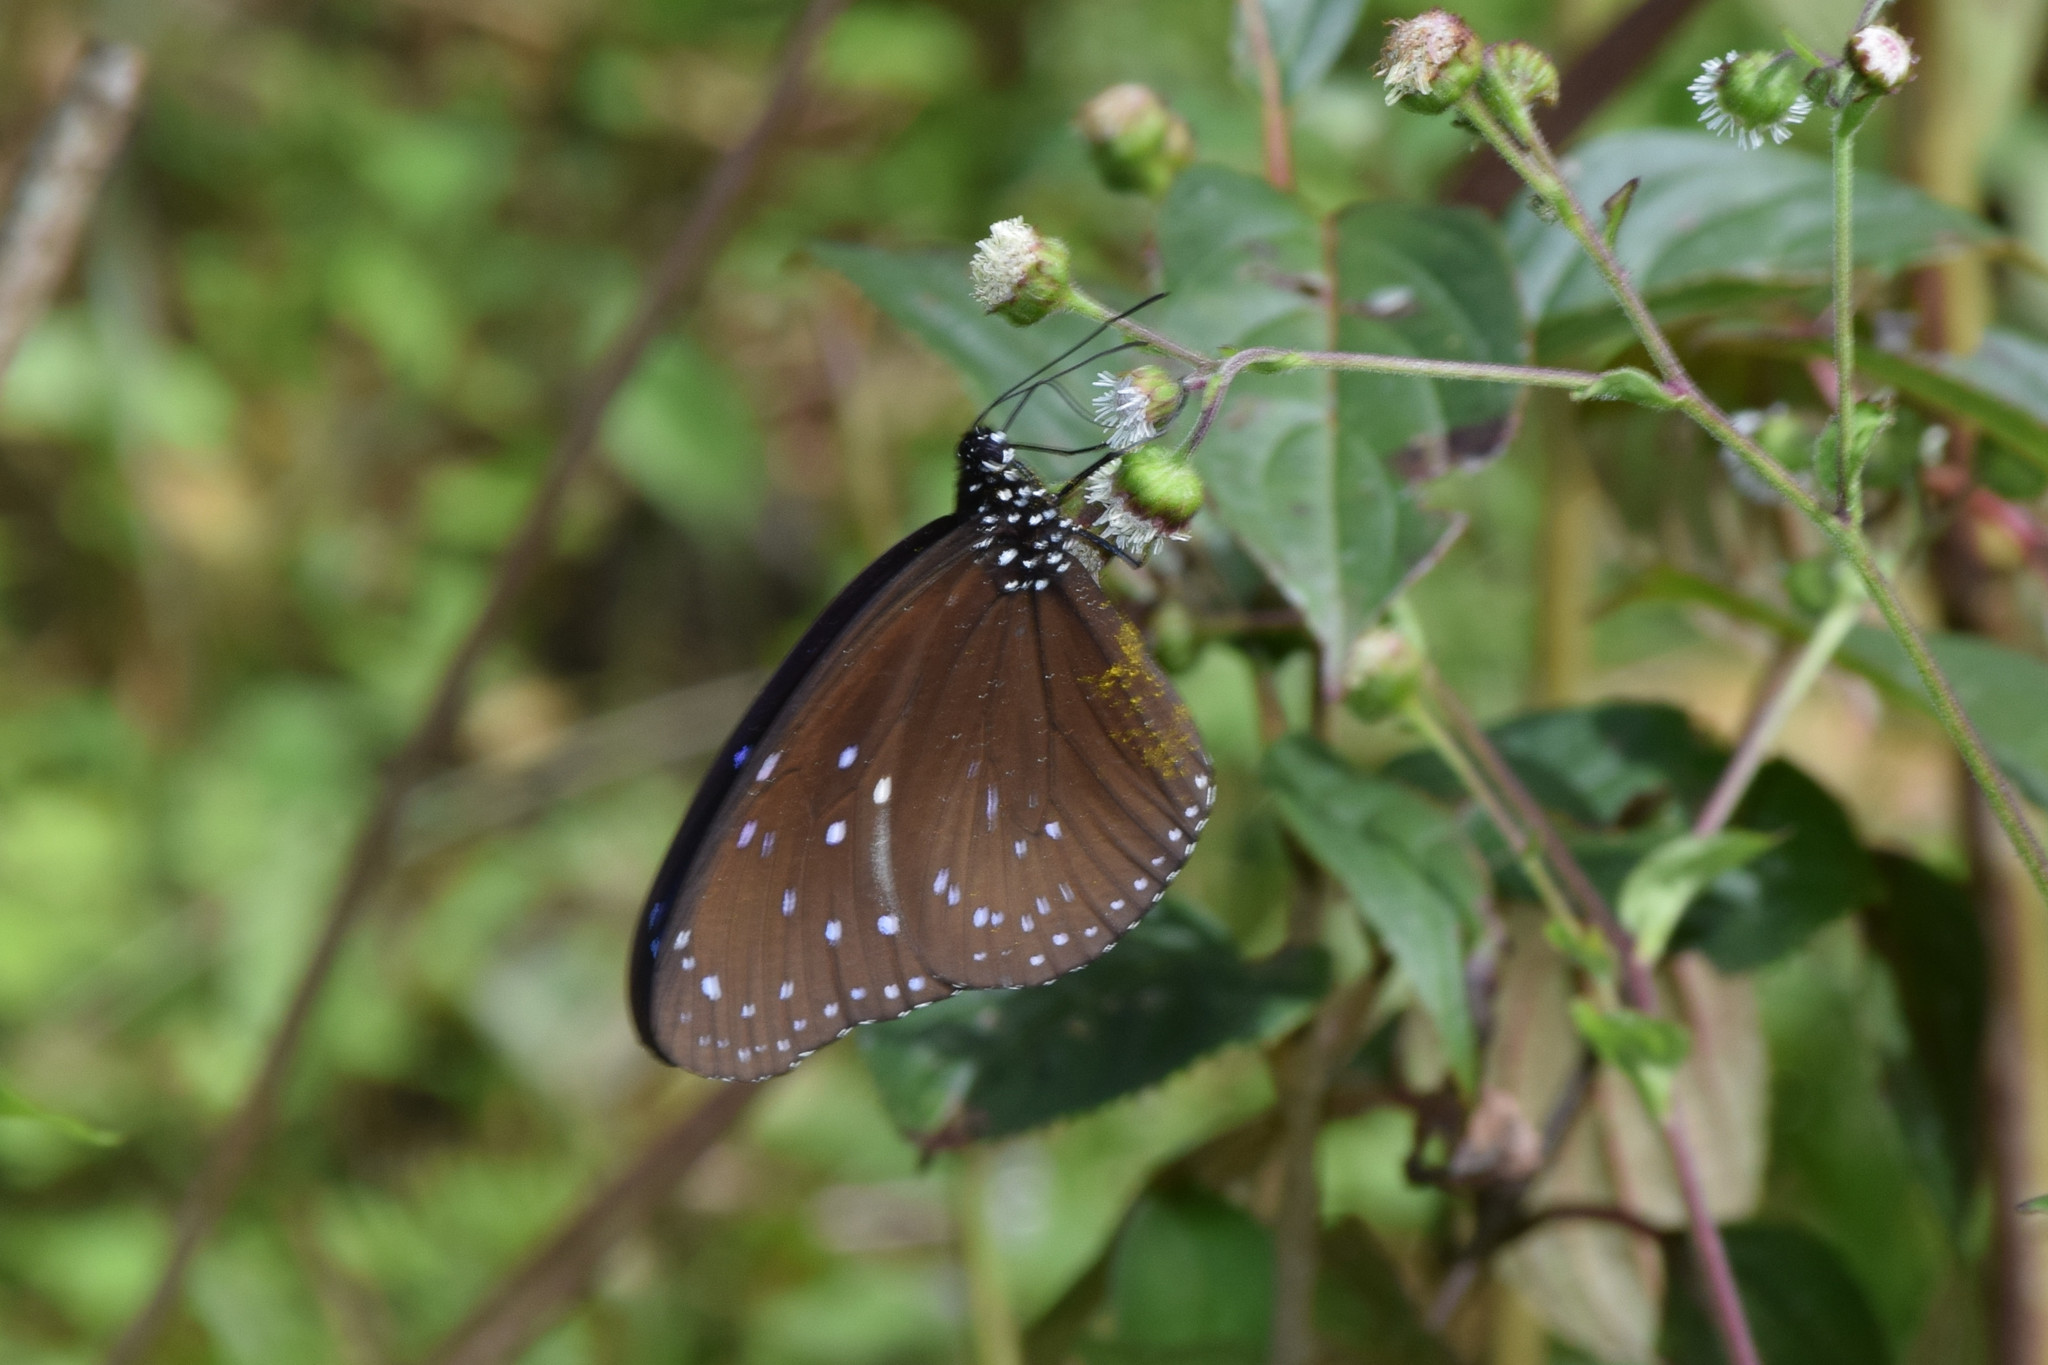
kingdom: Animalia
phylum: Arthropoda
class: Insecta
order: Lepidoptera
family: Nymphalidae
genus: Euploea
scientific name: Euploea midamus
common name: Blue-spotted crow butterfly
